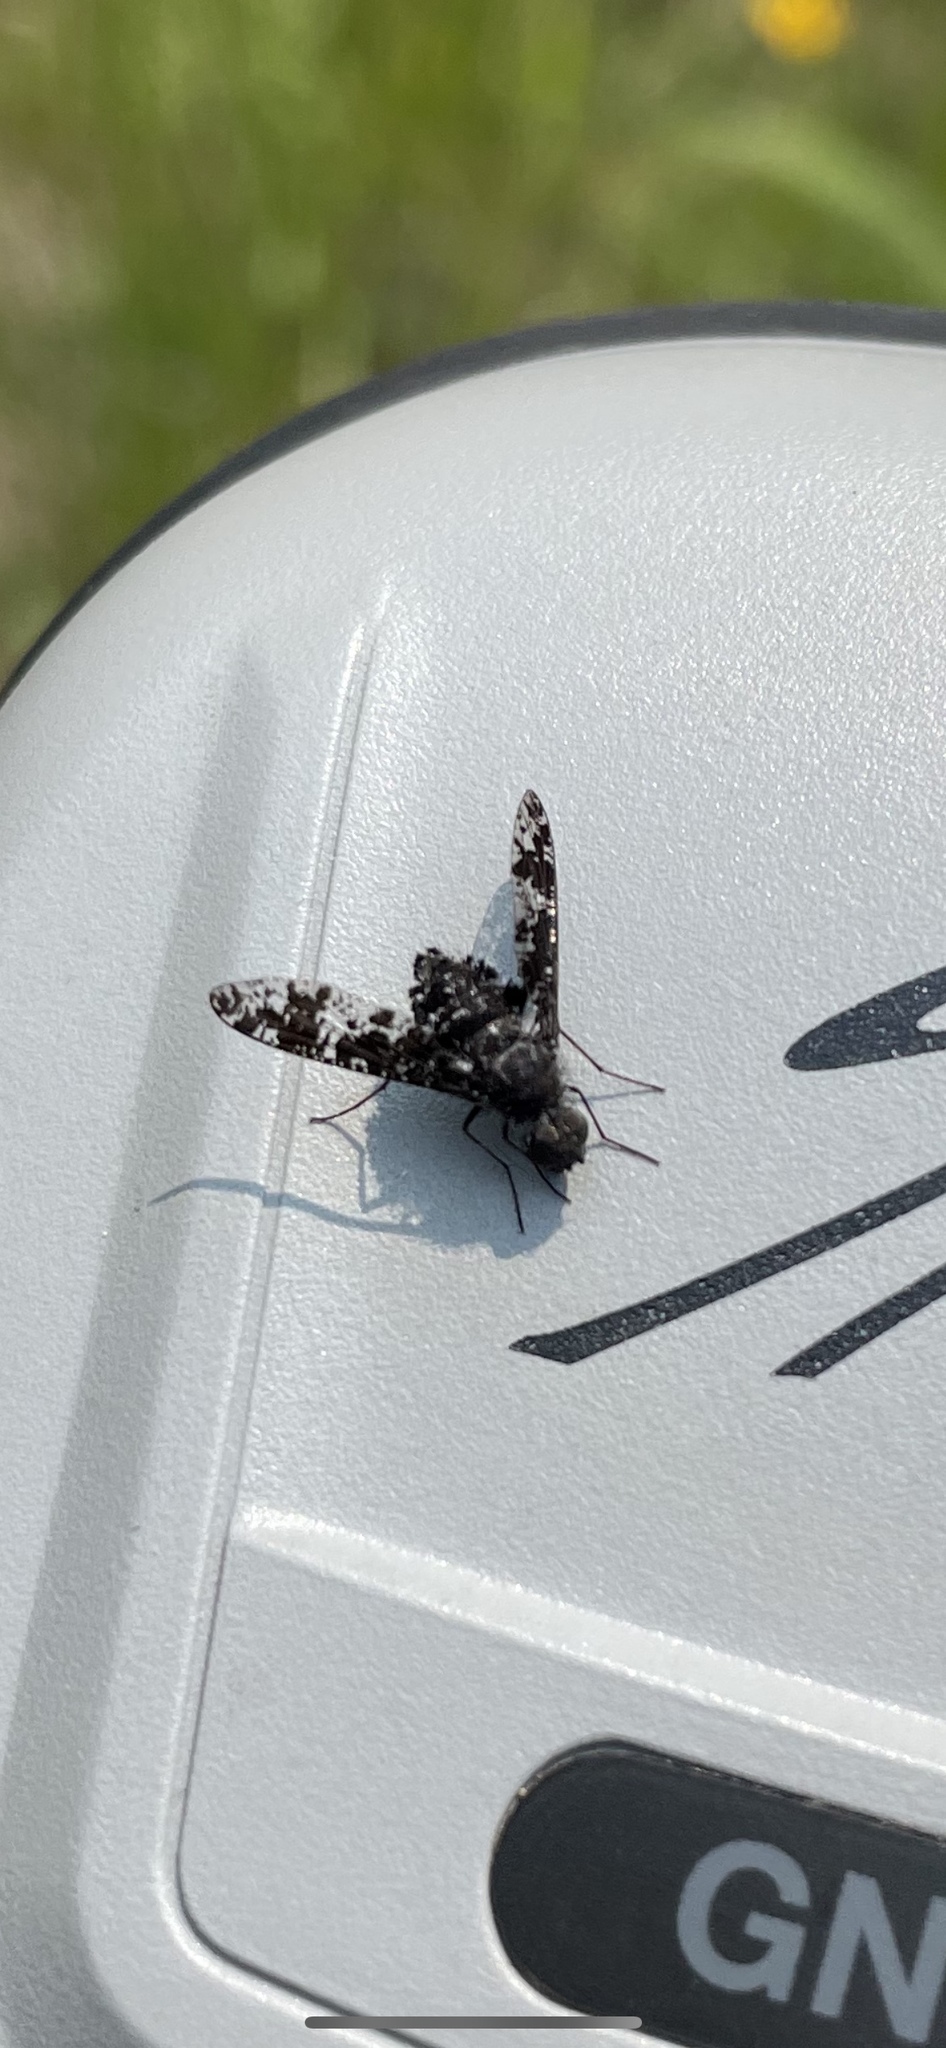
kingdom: Animalia
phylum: Arthropoda
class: Insecta
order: Diptera
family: Bombyliidae
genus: Anthrax
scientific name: Anthrax irroratus
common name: Spotted bee fly
